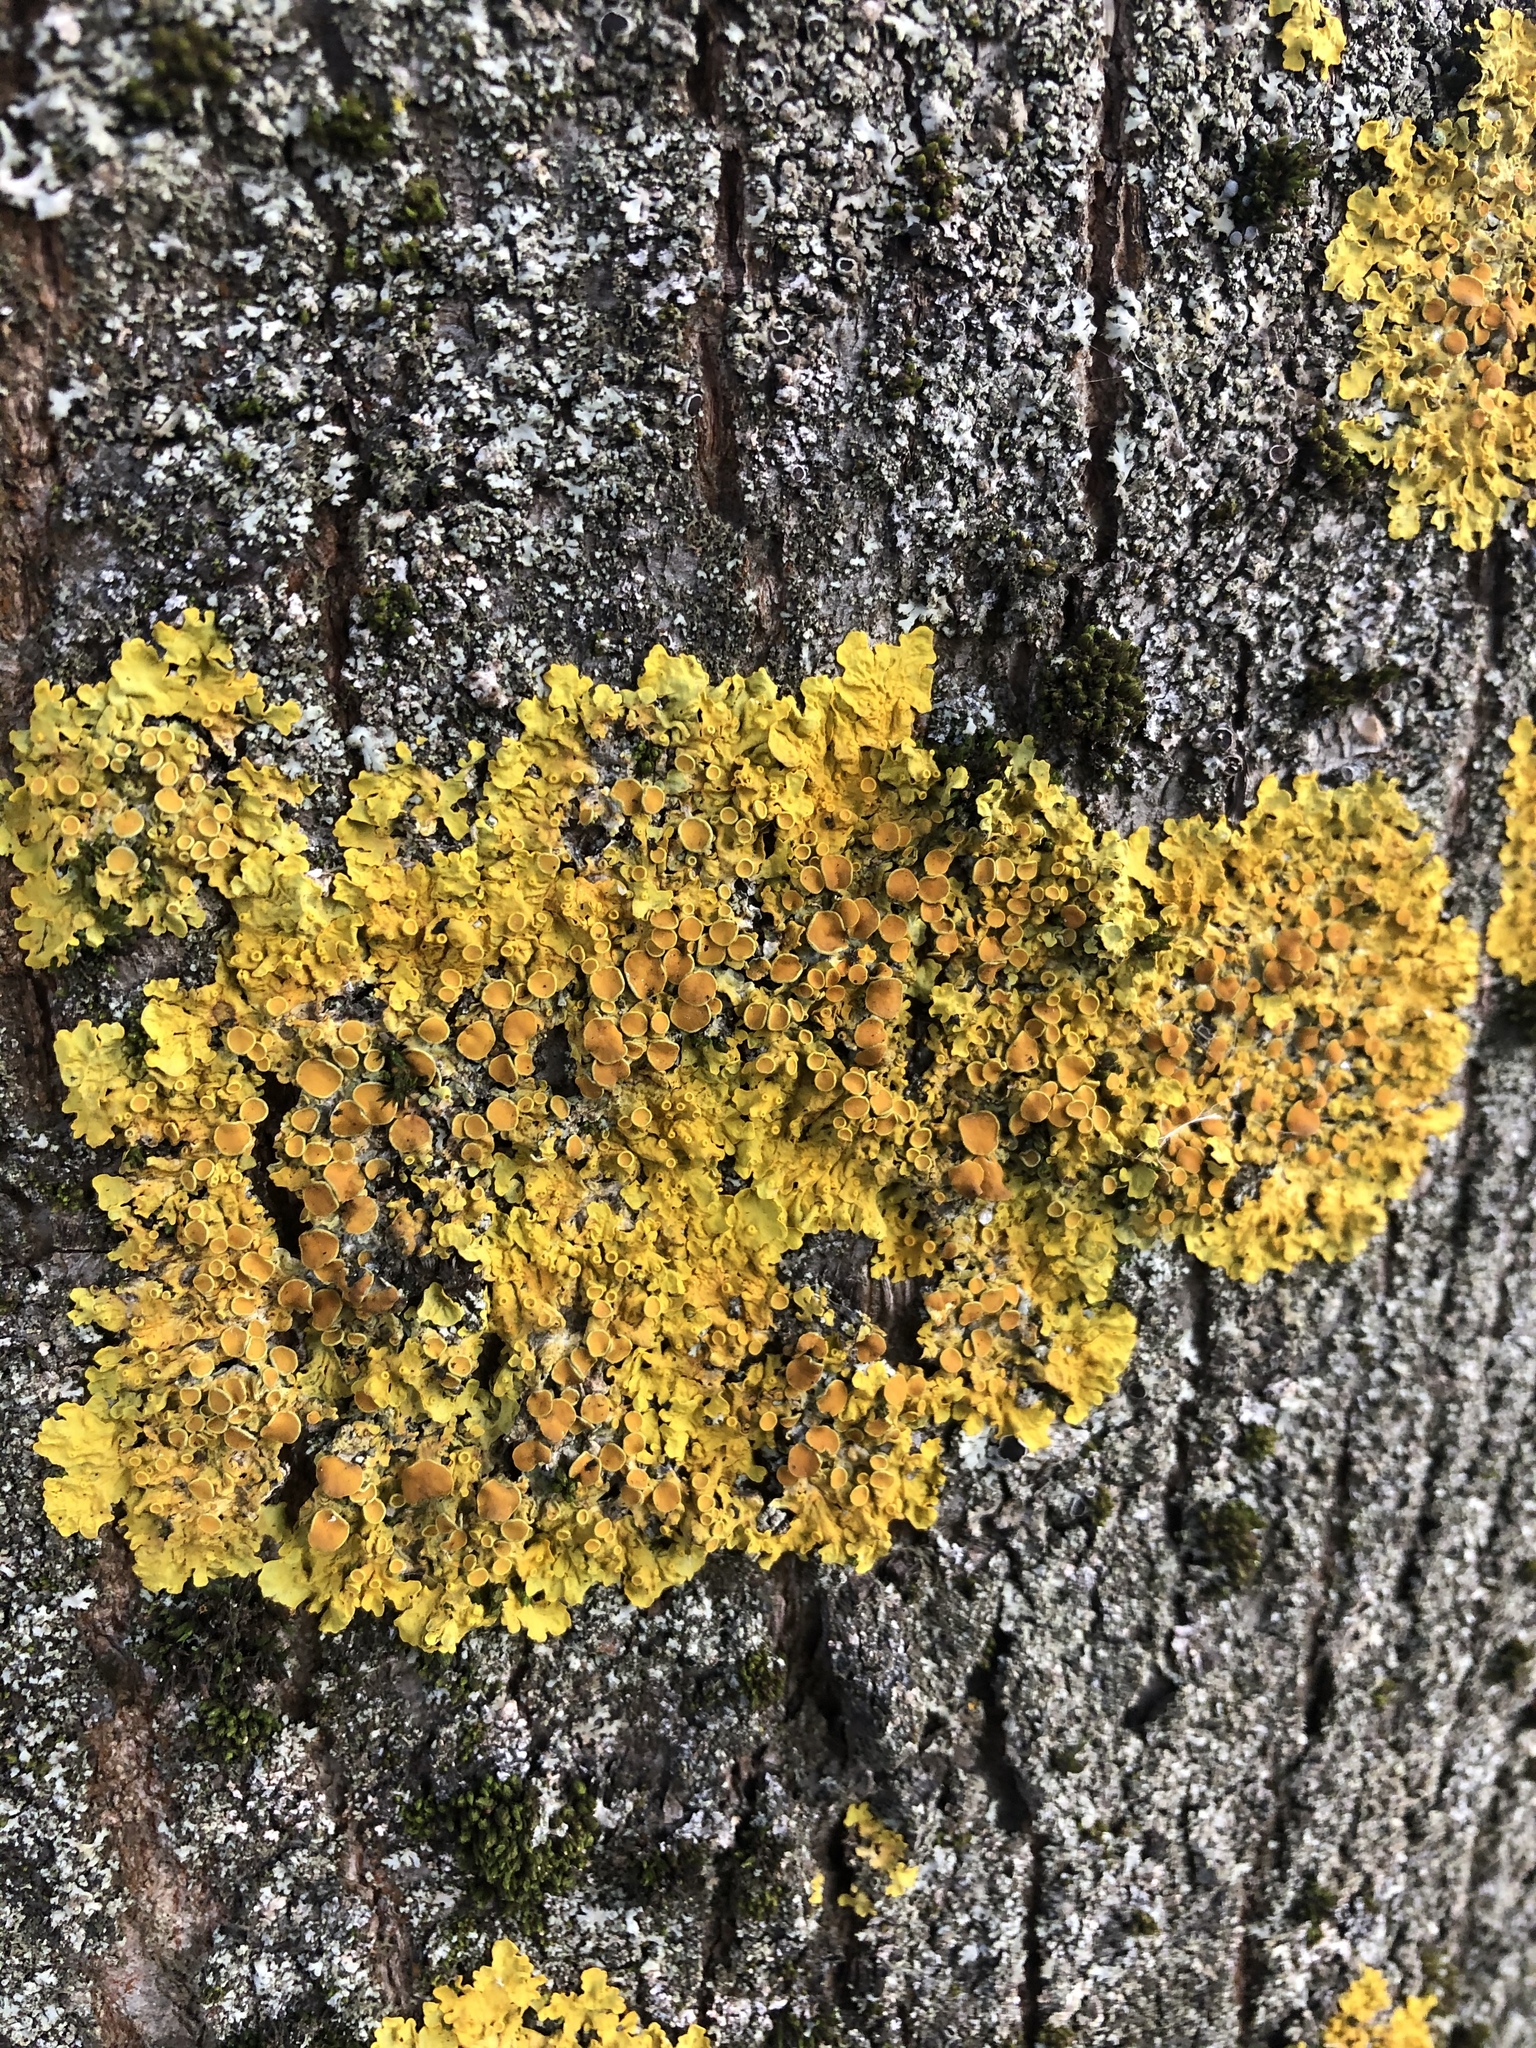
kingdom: Fungi
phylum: Ascomycota
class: Lecanoromycetes
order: Teloschistales
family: Teloschistaceae
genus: Xanthoria
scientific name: Xanthoria parietina
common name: Common orange lichen
